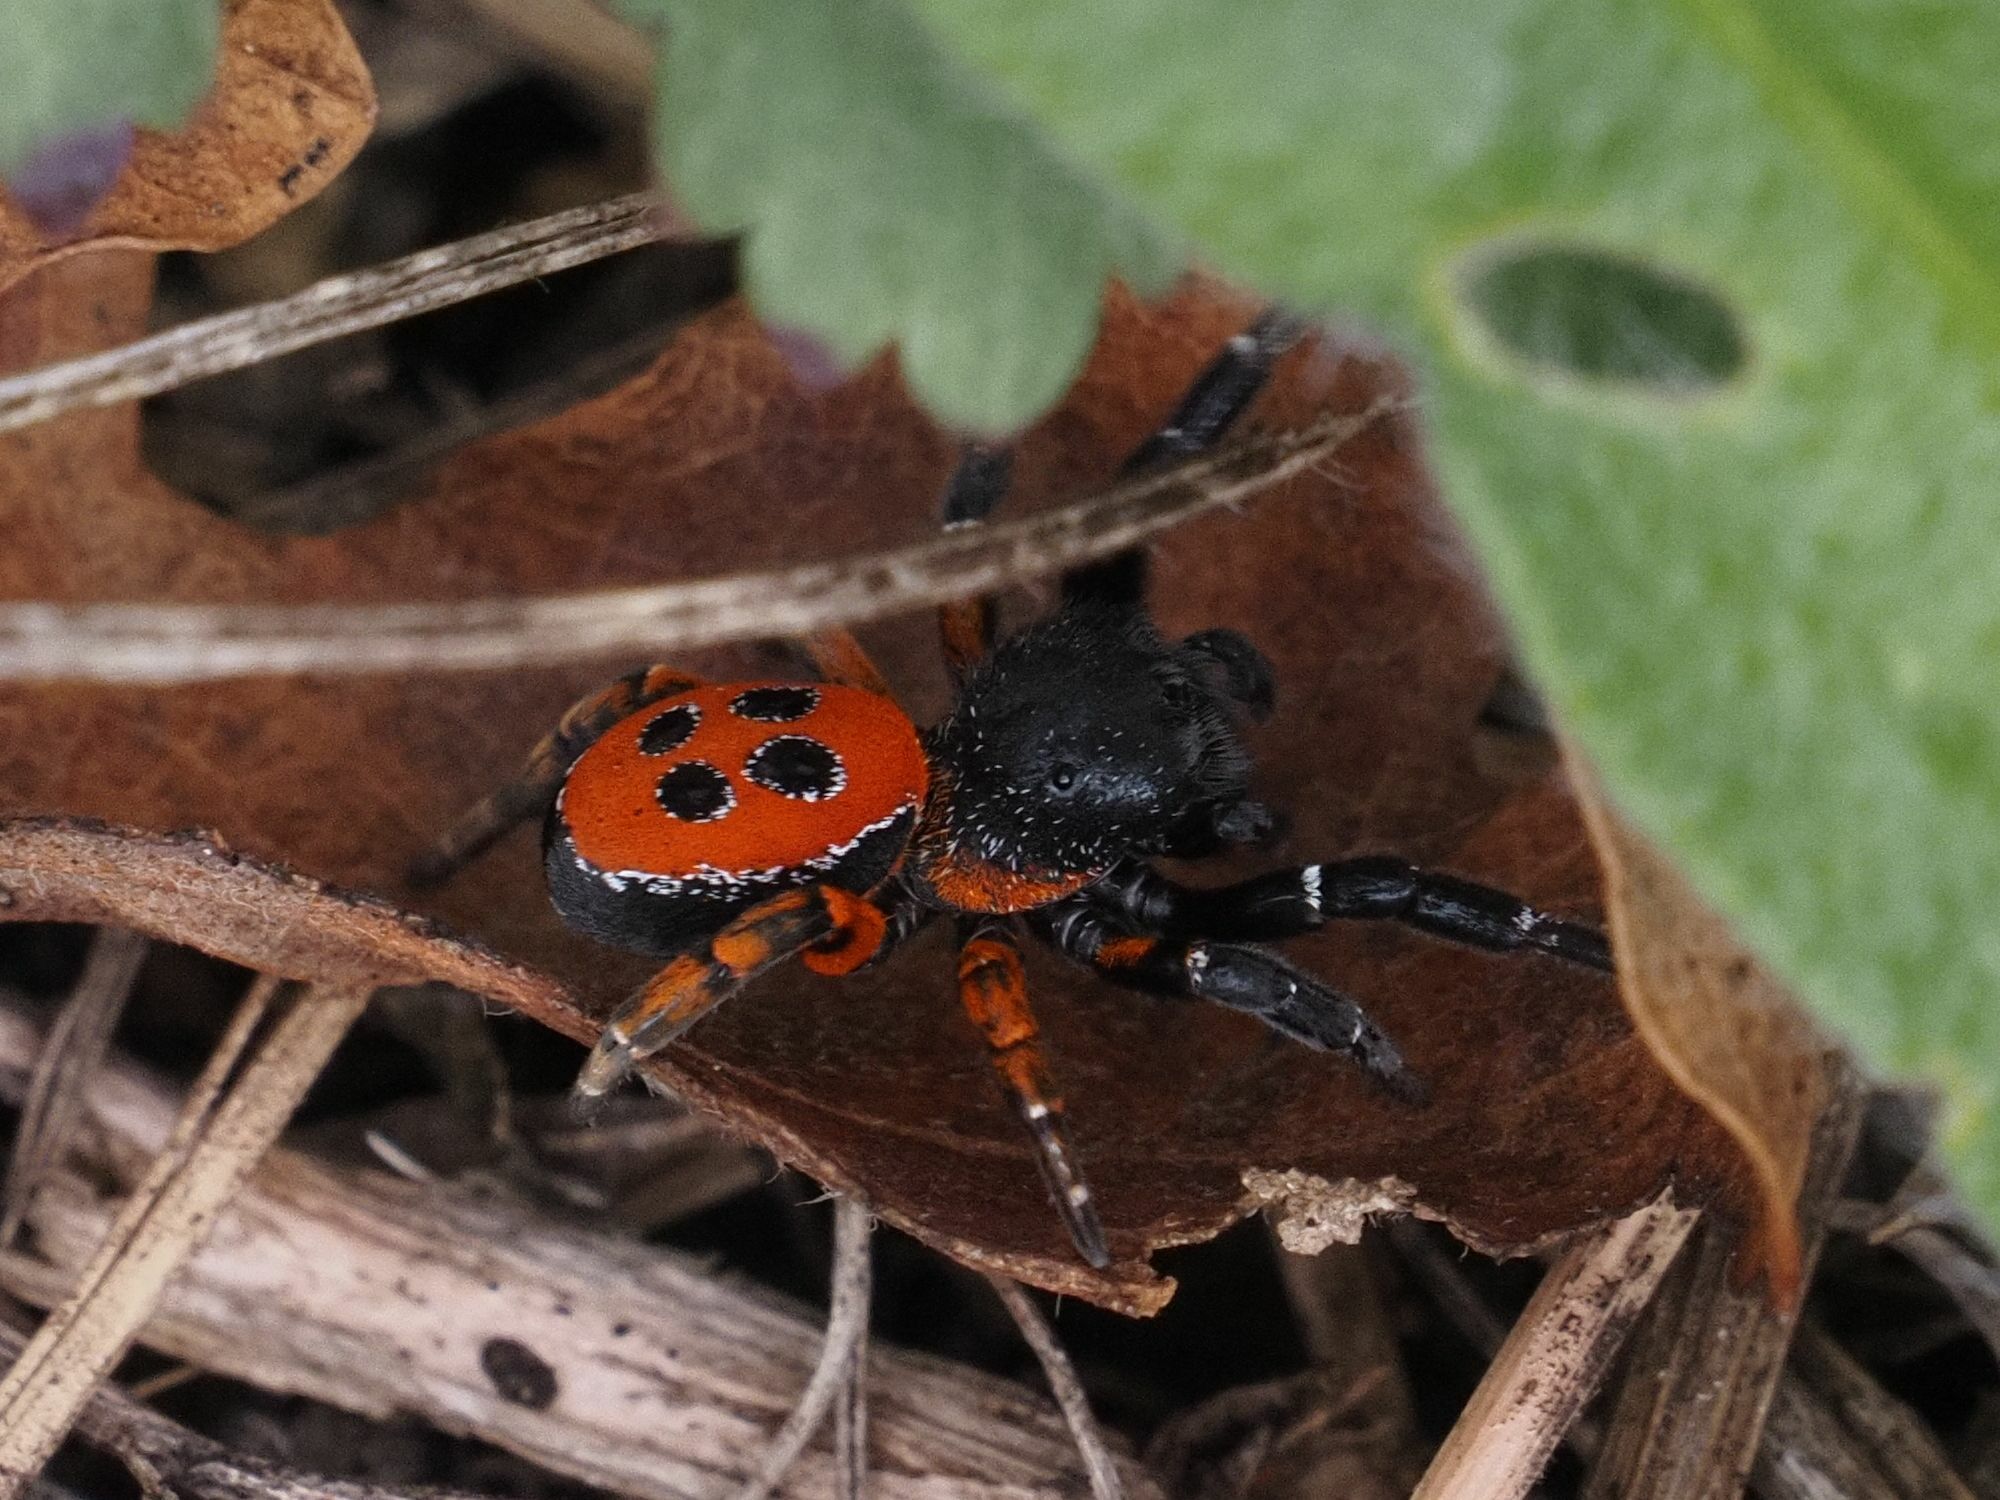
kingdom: Animalia
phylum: Arthropoda
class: Arachnida
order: Araneae
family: Eresidae
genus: Eresus
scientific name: Eresus kollari
